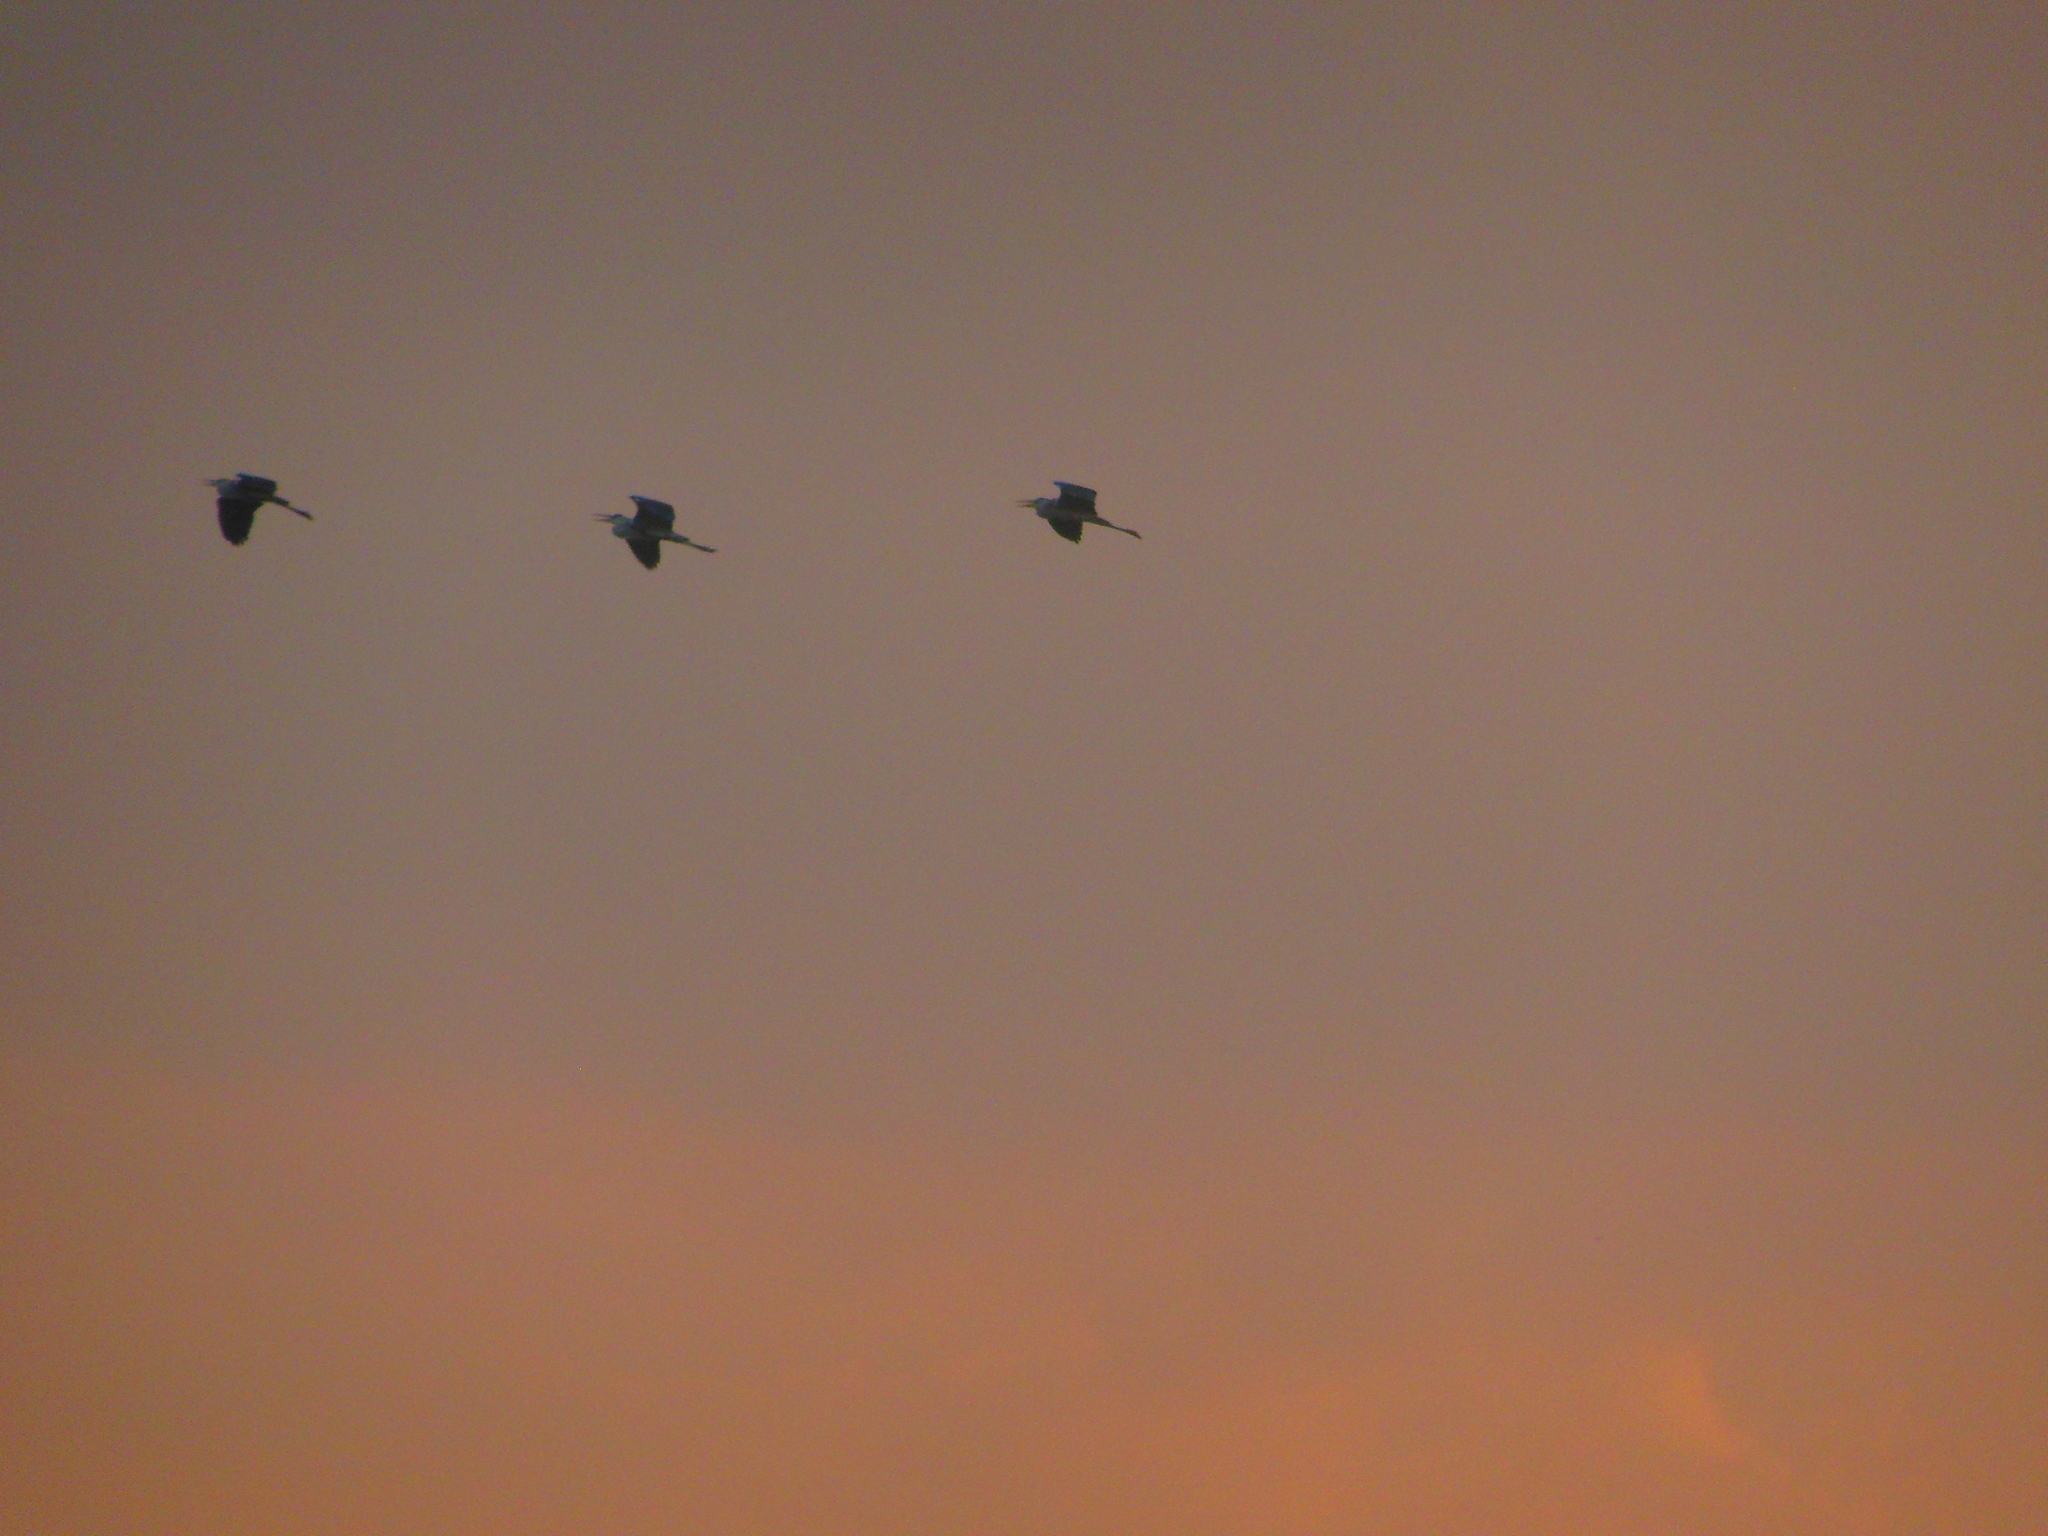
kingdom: Animalia
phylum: Chordata
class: Aves
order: Pelecaniformes
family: Ardeidae
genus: Ardea
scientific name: Ardea cinerea
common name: Grey heron
